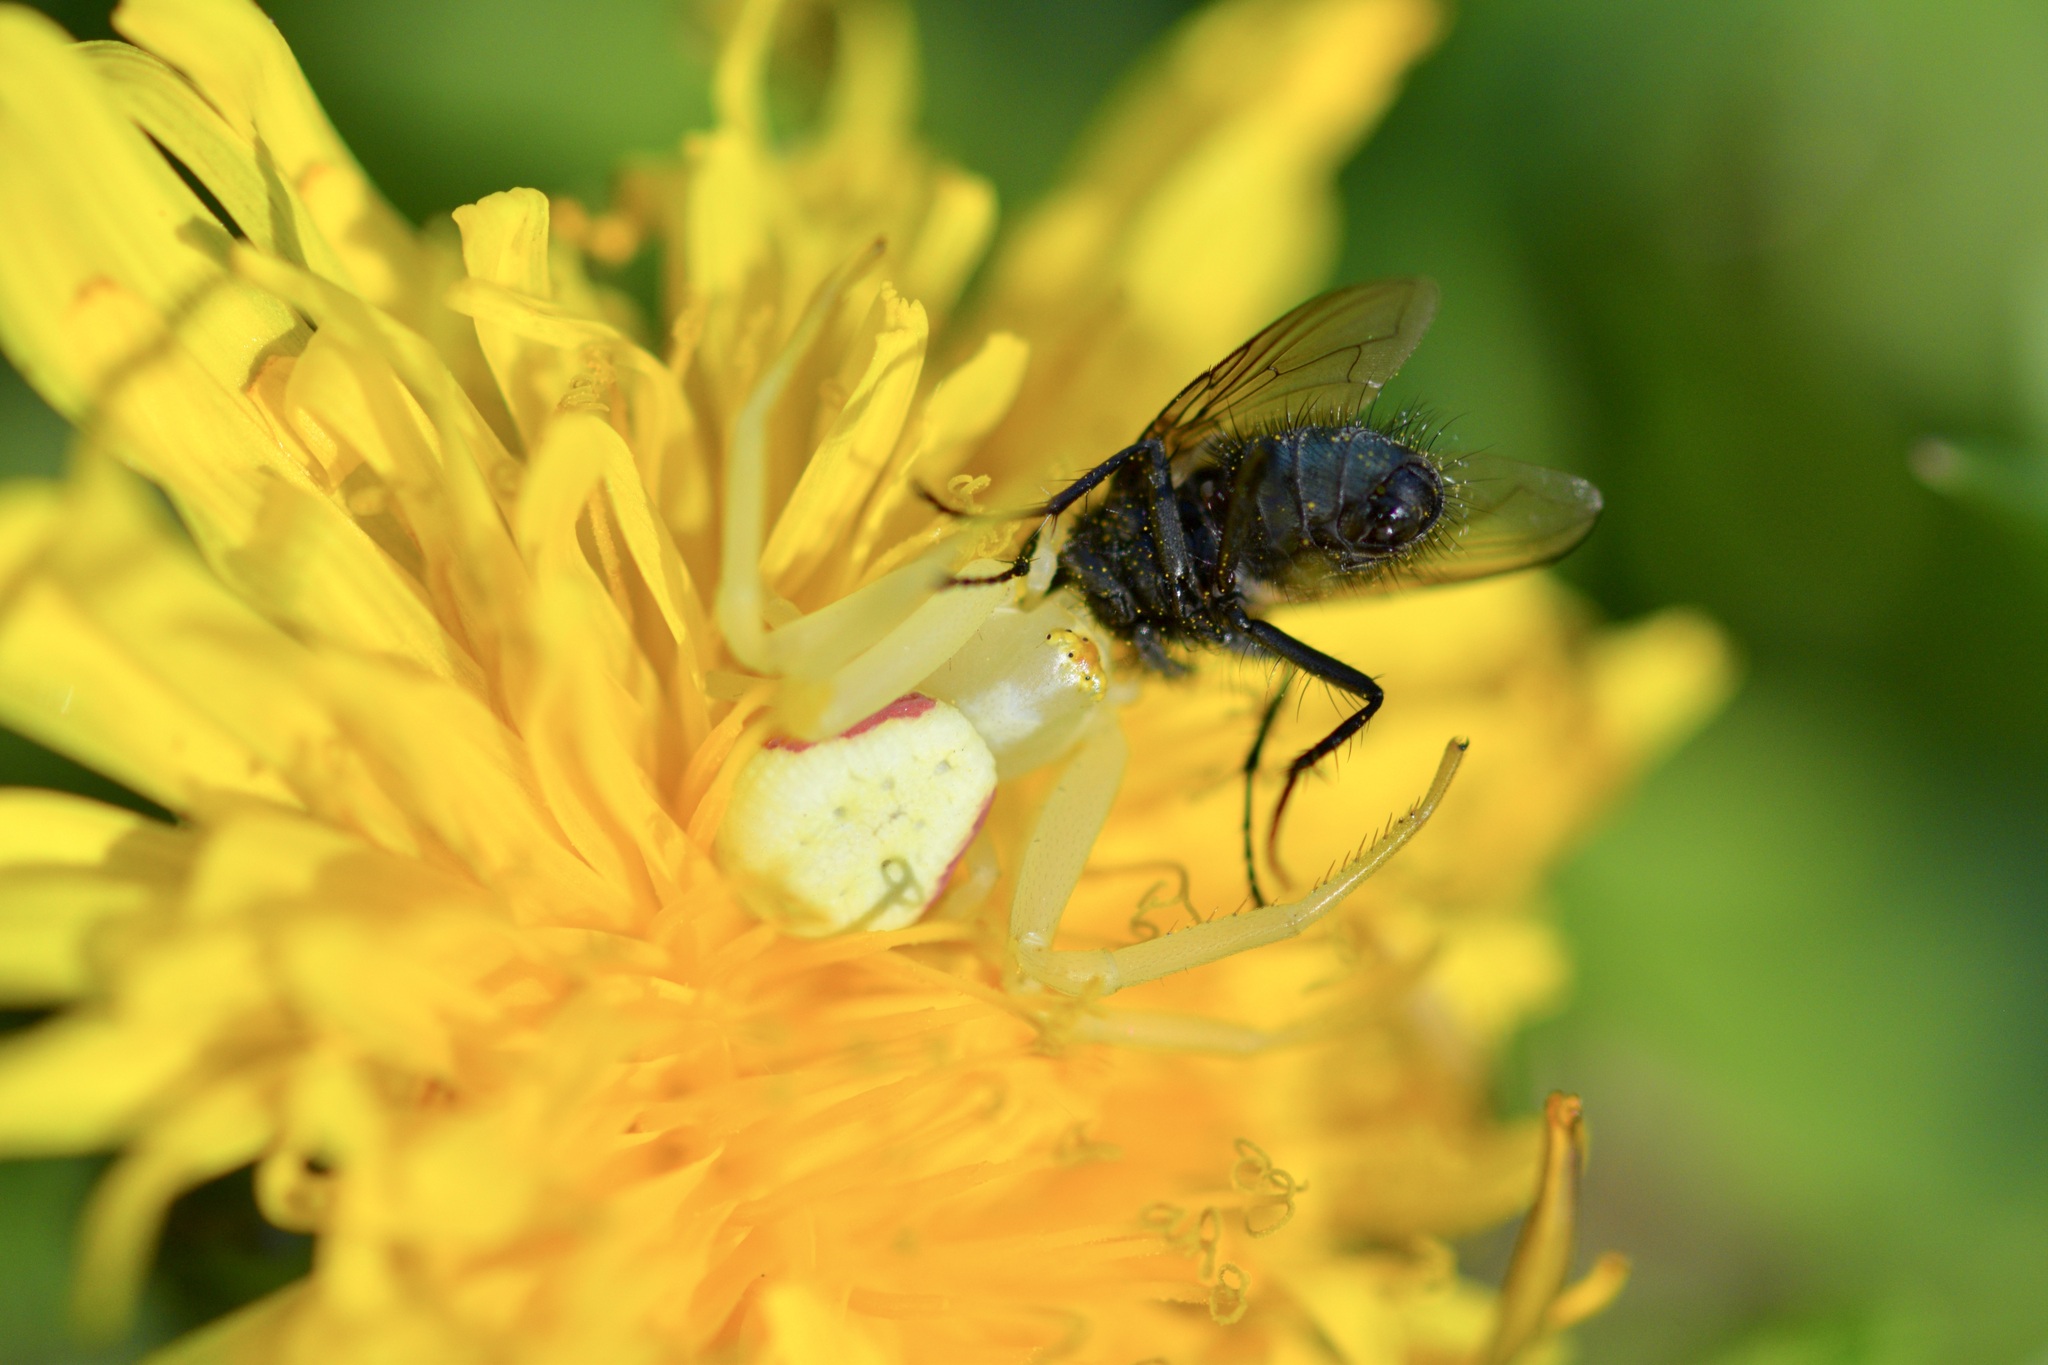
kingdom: Animalia
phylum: Arthropoda
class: Arachnida
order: Araneae
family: Thomisidae
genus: Misumena
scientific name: Misumena vatia
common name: Goldenrod crab spider
